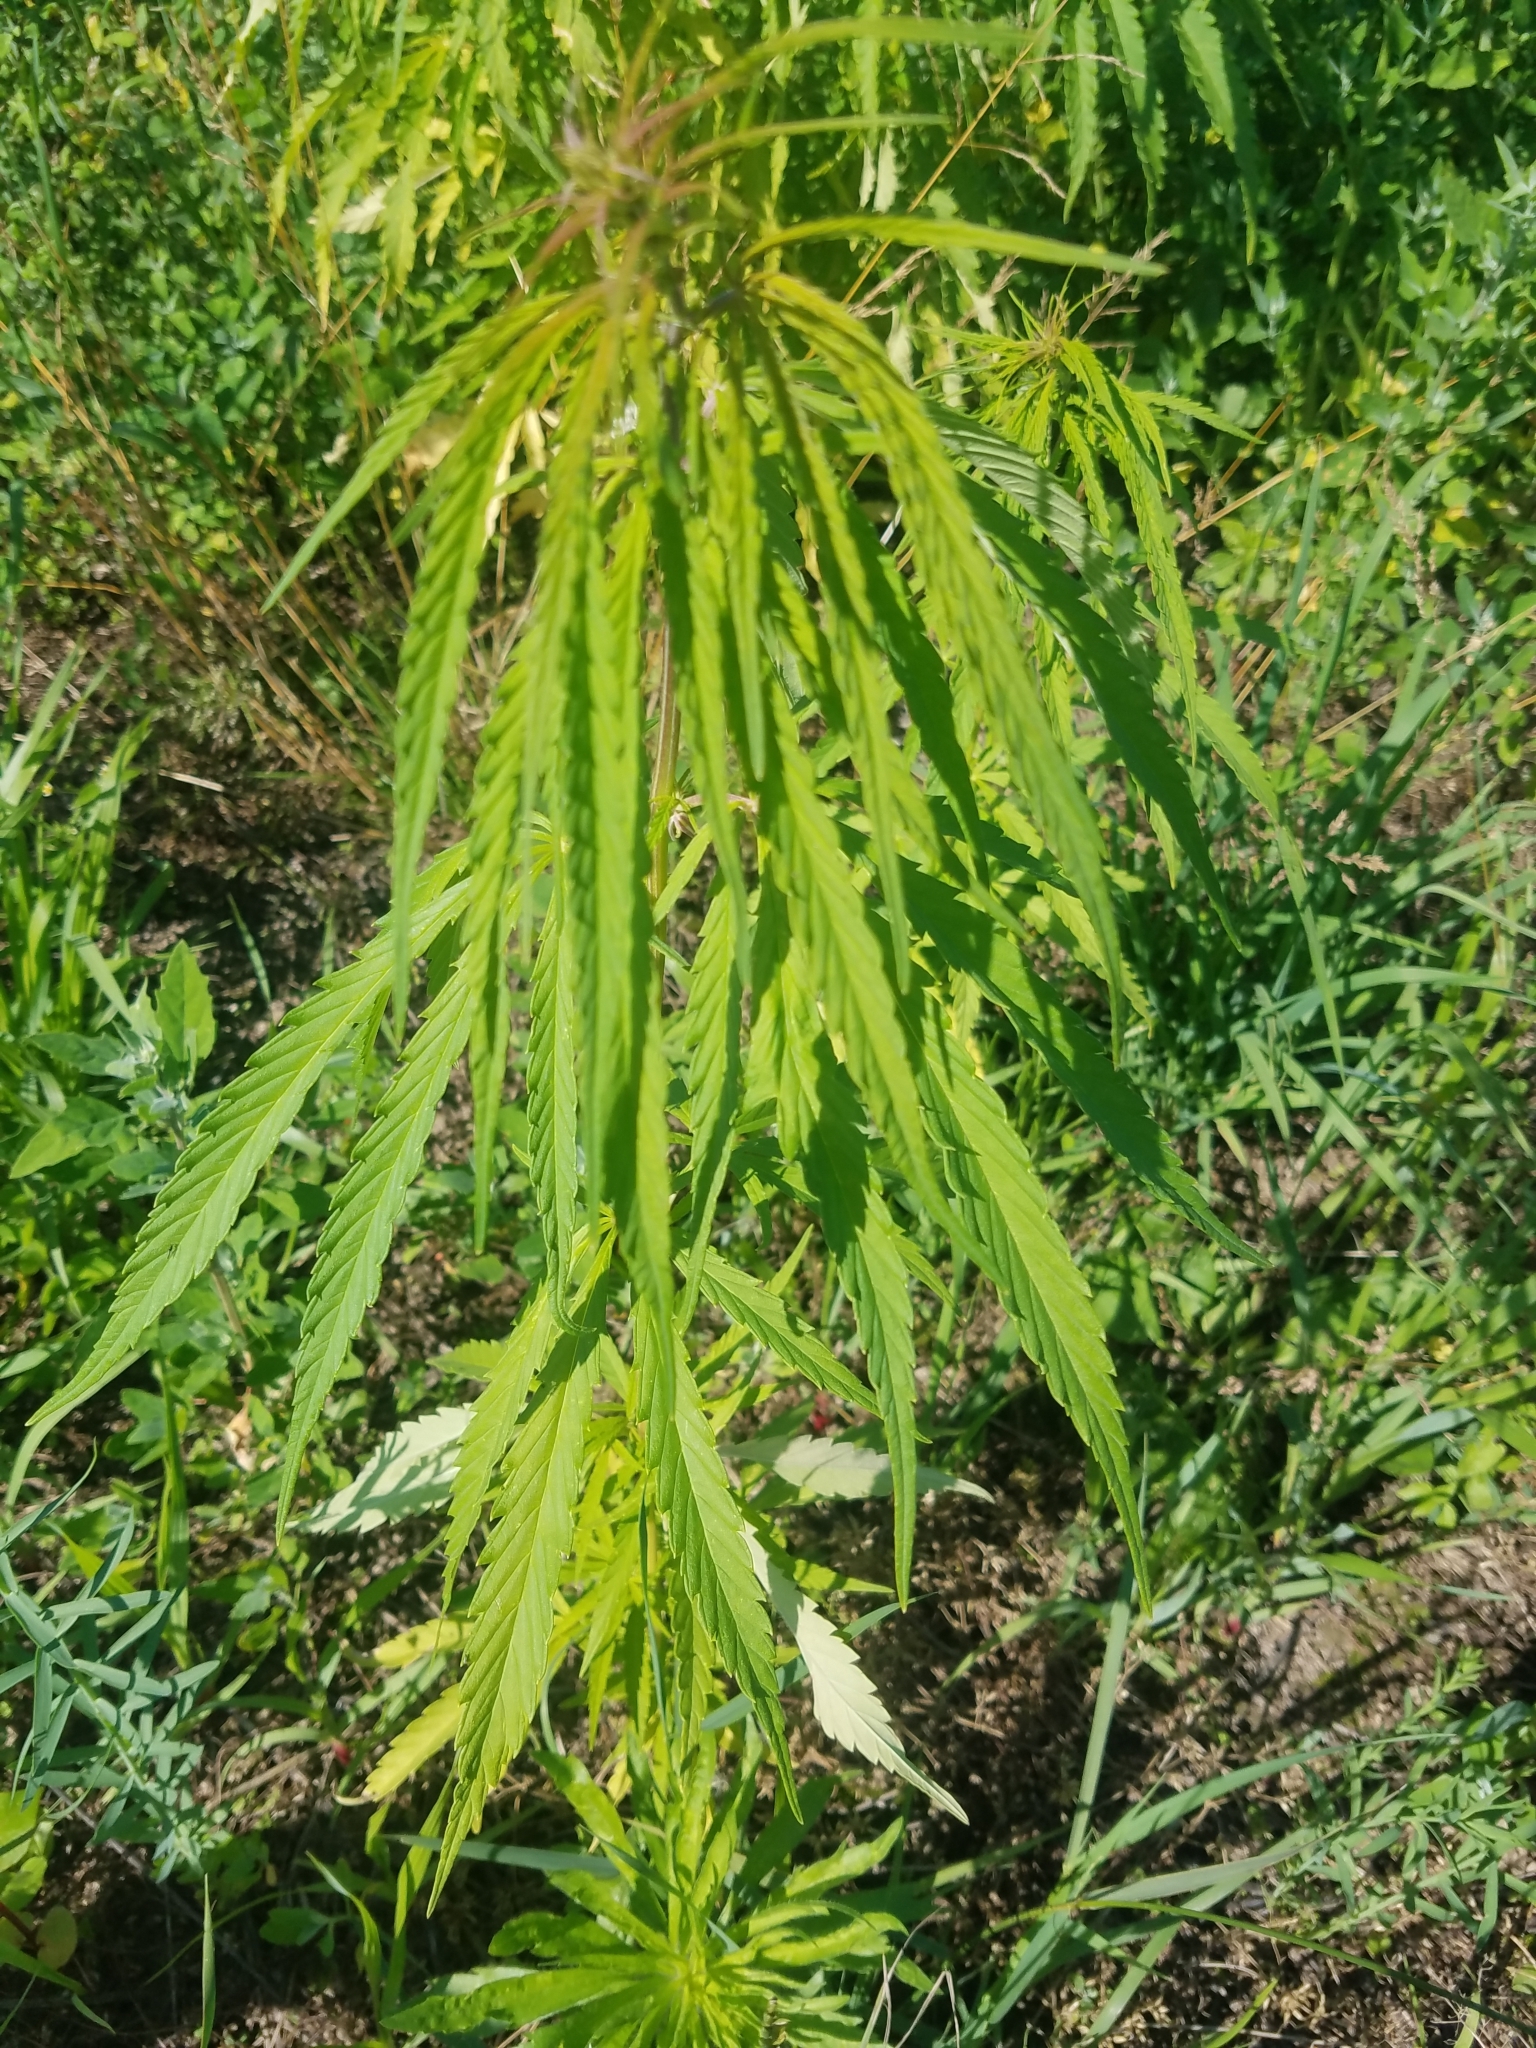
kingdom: Plantae
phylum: Tracheophyta
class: Magnoliopsida
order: Rosales
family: Cannabaceae
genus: Cannabis
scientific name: Cannabis sativa
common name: Hemp
